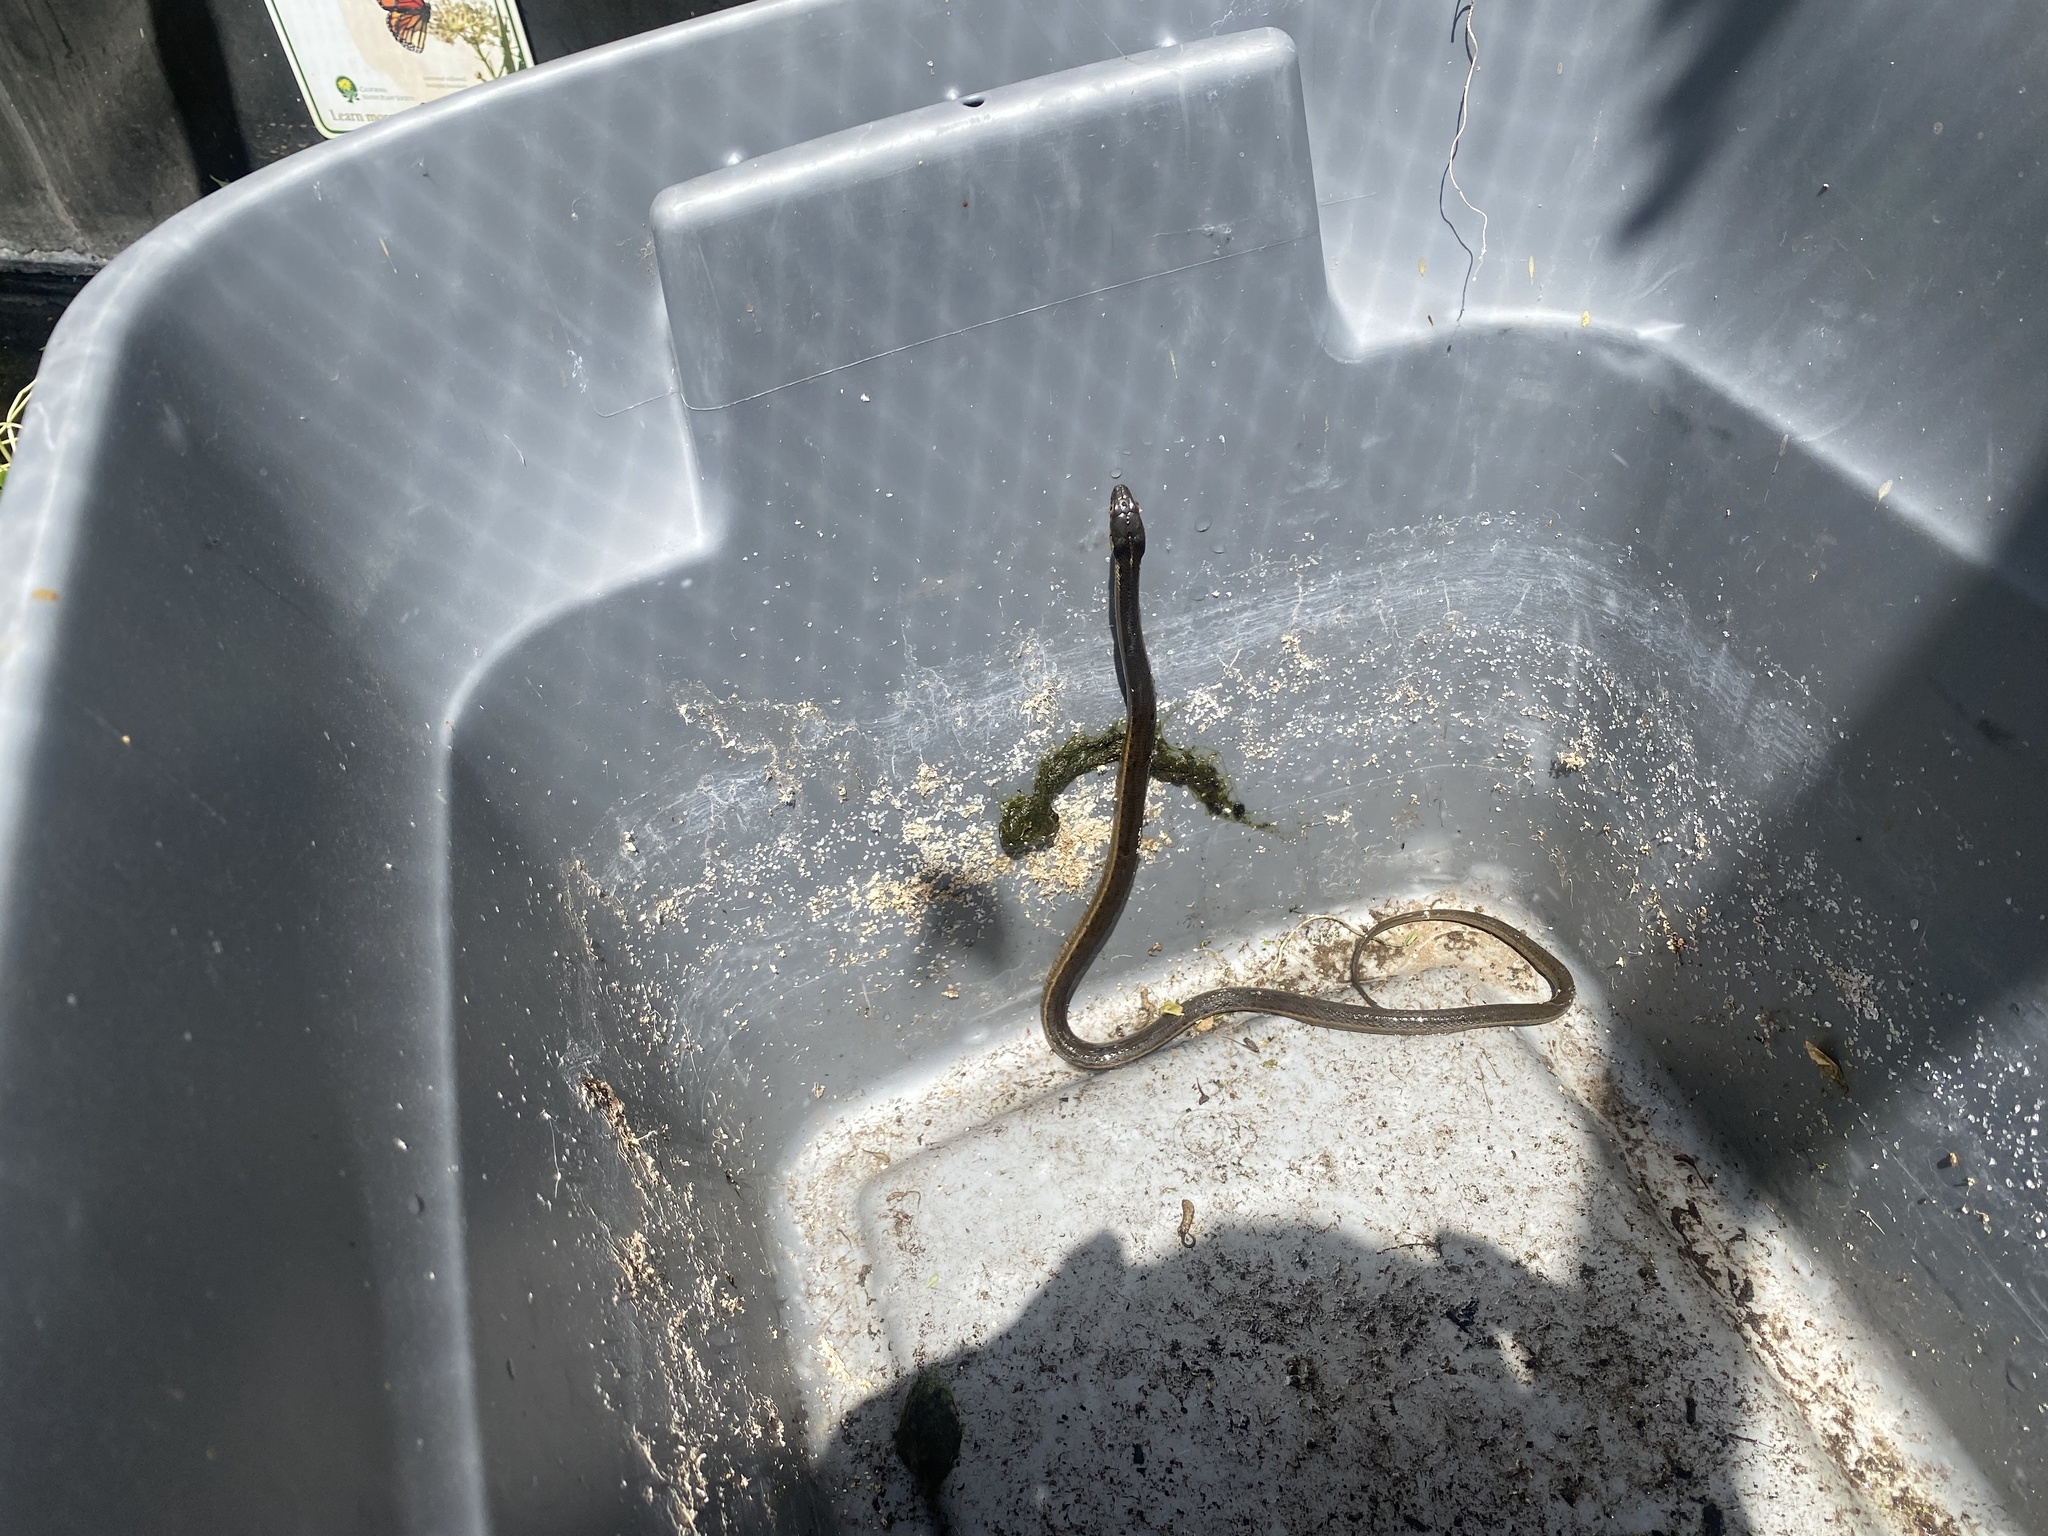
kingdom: Animalia
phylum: Chordata
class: Squamata
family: Colubridae
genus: Thamnophis
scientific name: Thamnophis hammondii
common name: Two-striped garter snake
